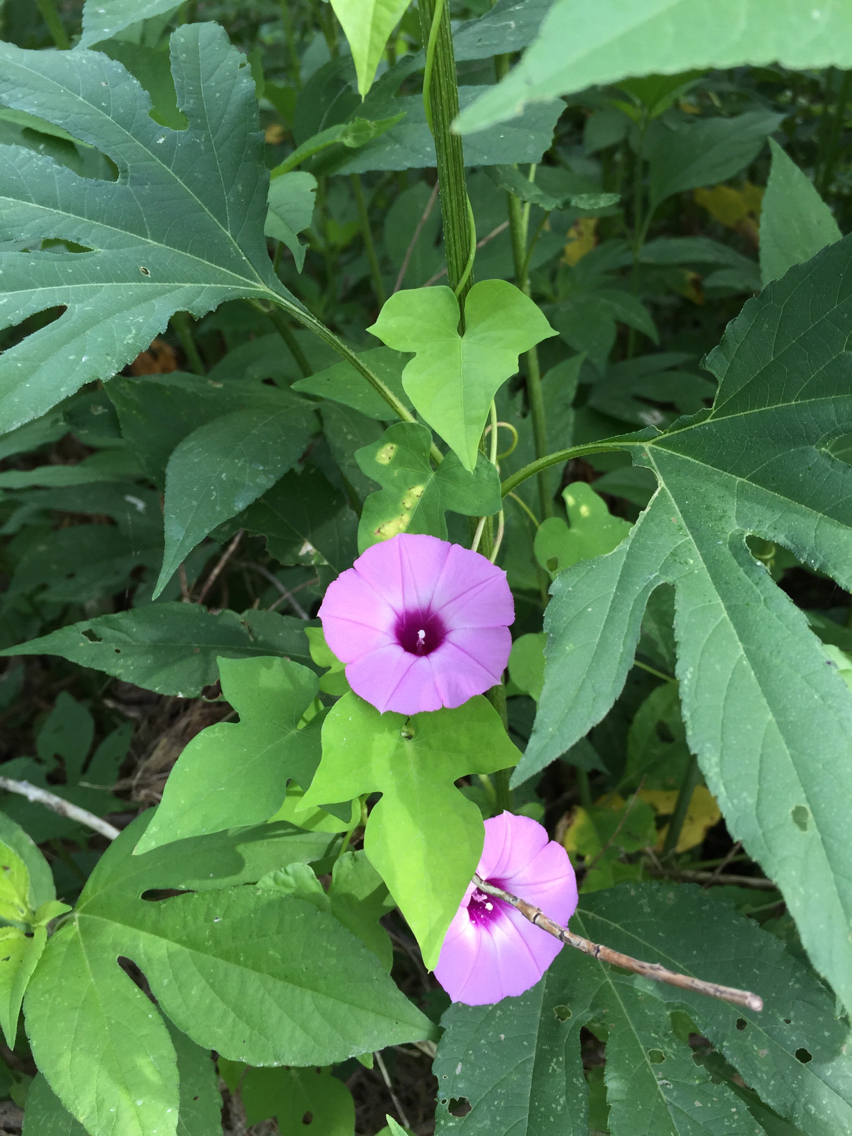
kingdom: Plantae
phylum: Tracheophyta
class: Magnoliopsida
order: Solanales
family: Convolvulaceae
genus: Ipomoea
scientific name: Ipomoea cordatotriloba
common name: Cotton morning glory
